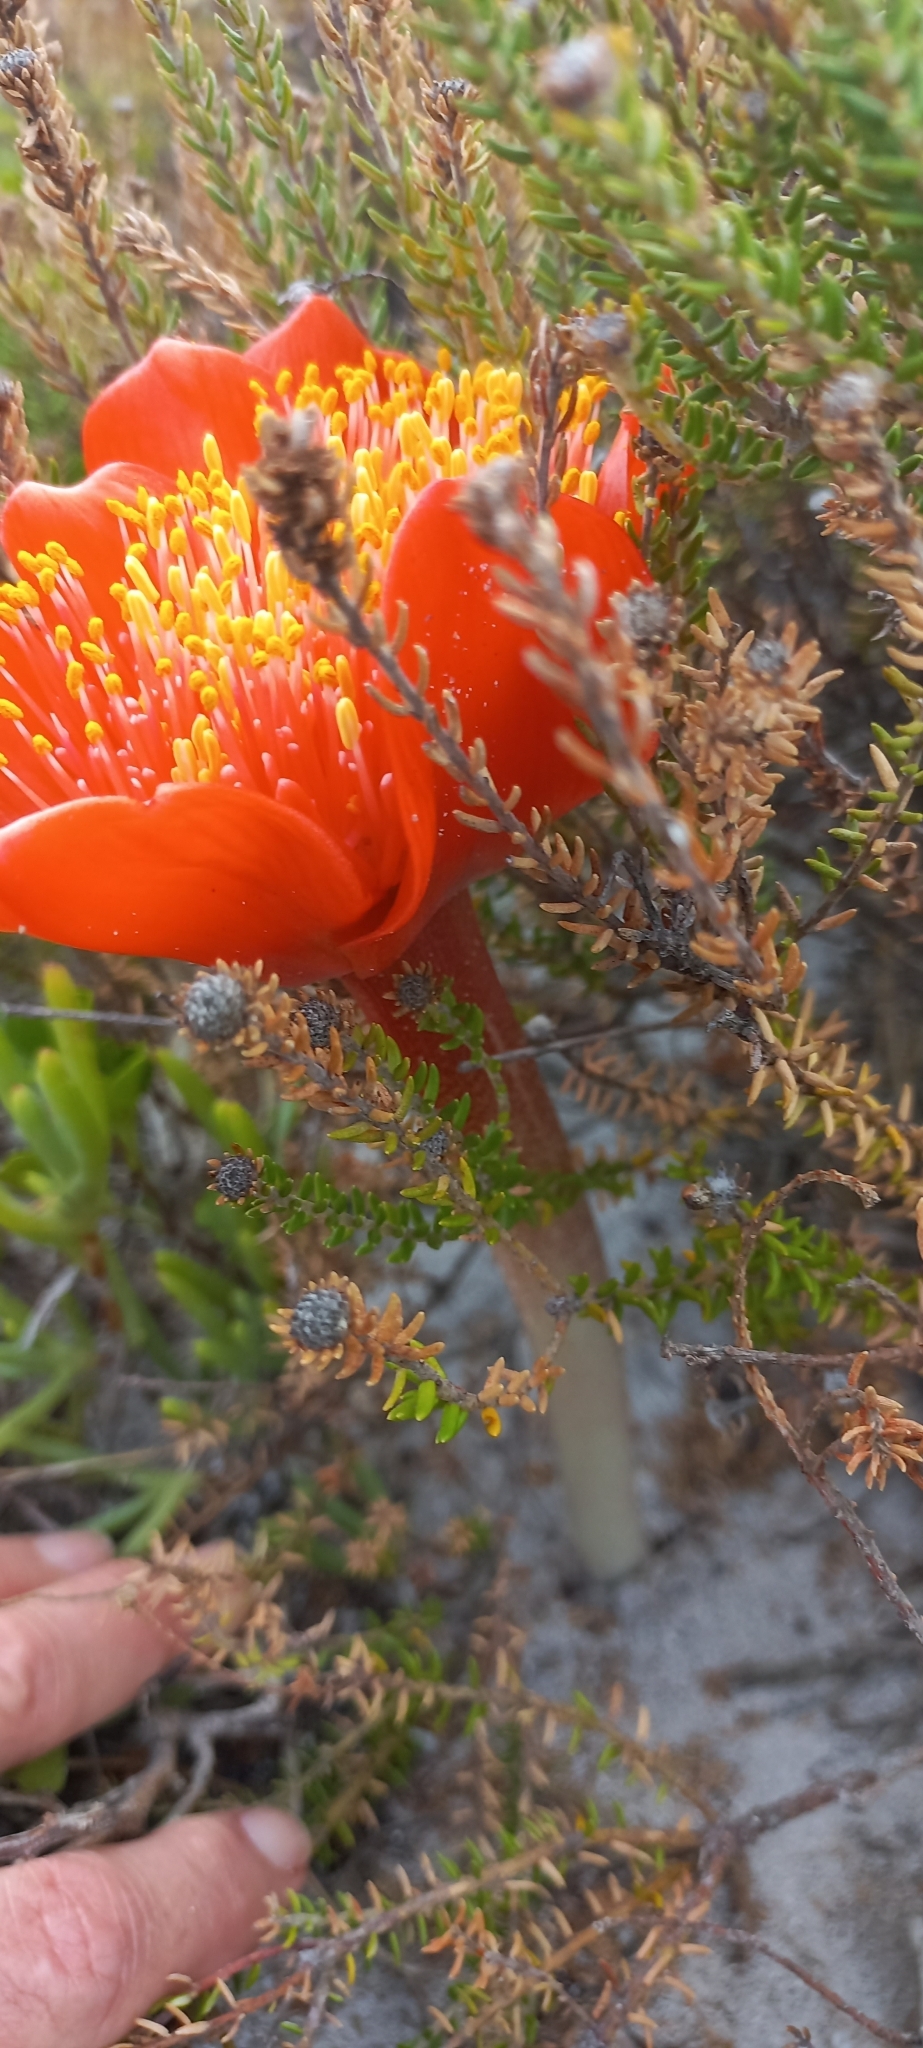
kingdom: Plantae
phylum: Tracheophyta
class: Liliopsida
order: Asparagales
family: Amaryllidaceae
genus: Haemanthus
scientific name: Haemanthus coccineus
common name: Cape-tulip
